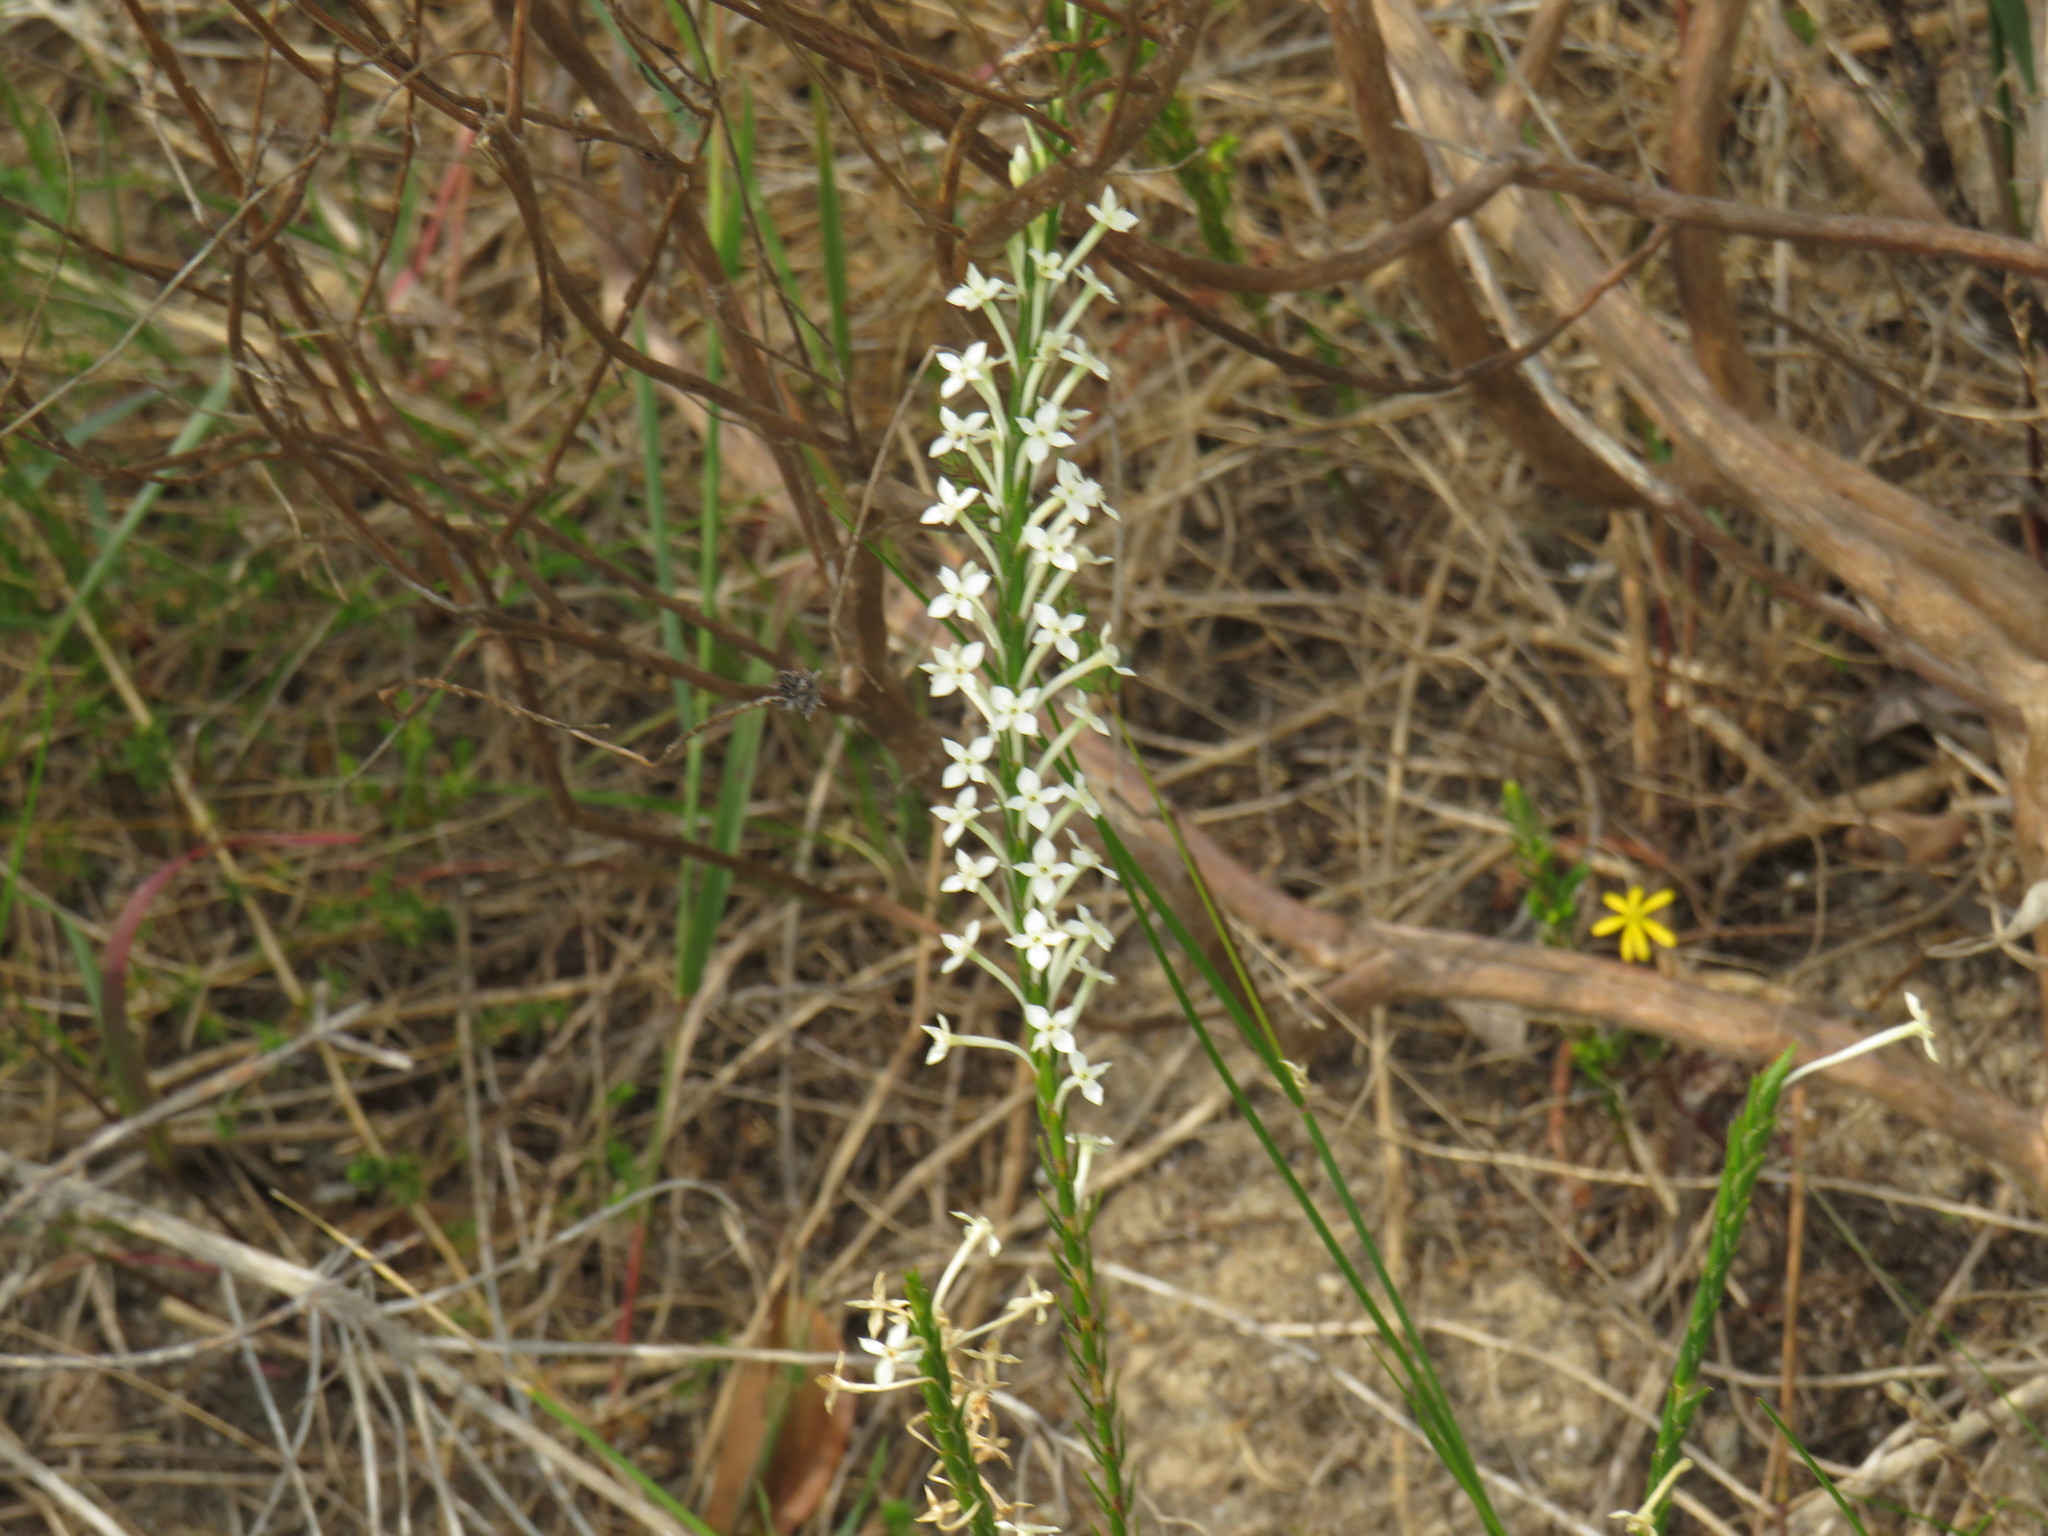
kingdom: Plantae
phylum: Tracheophyta
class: Magnoliopsida
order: Malvales
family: Thymelaeaceae
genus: Struthiola
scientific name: Struthiola ciliata
